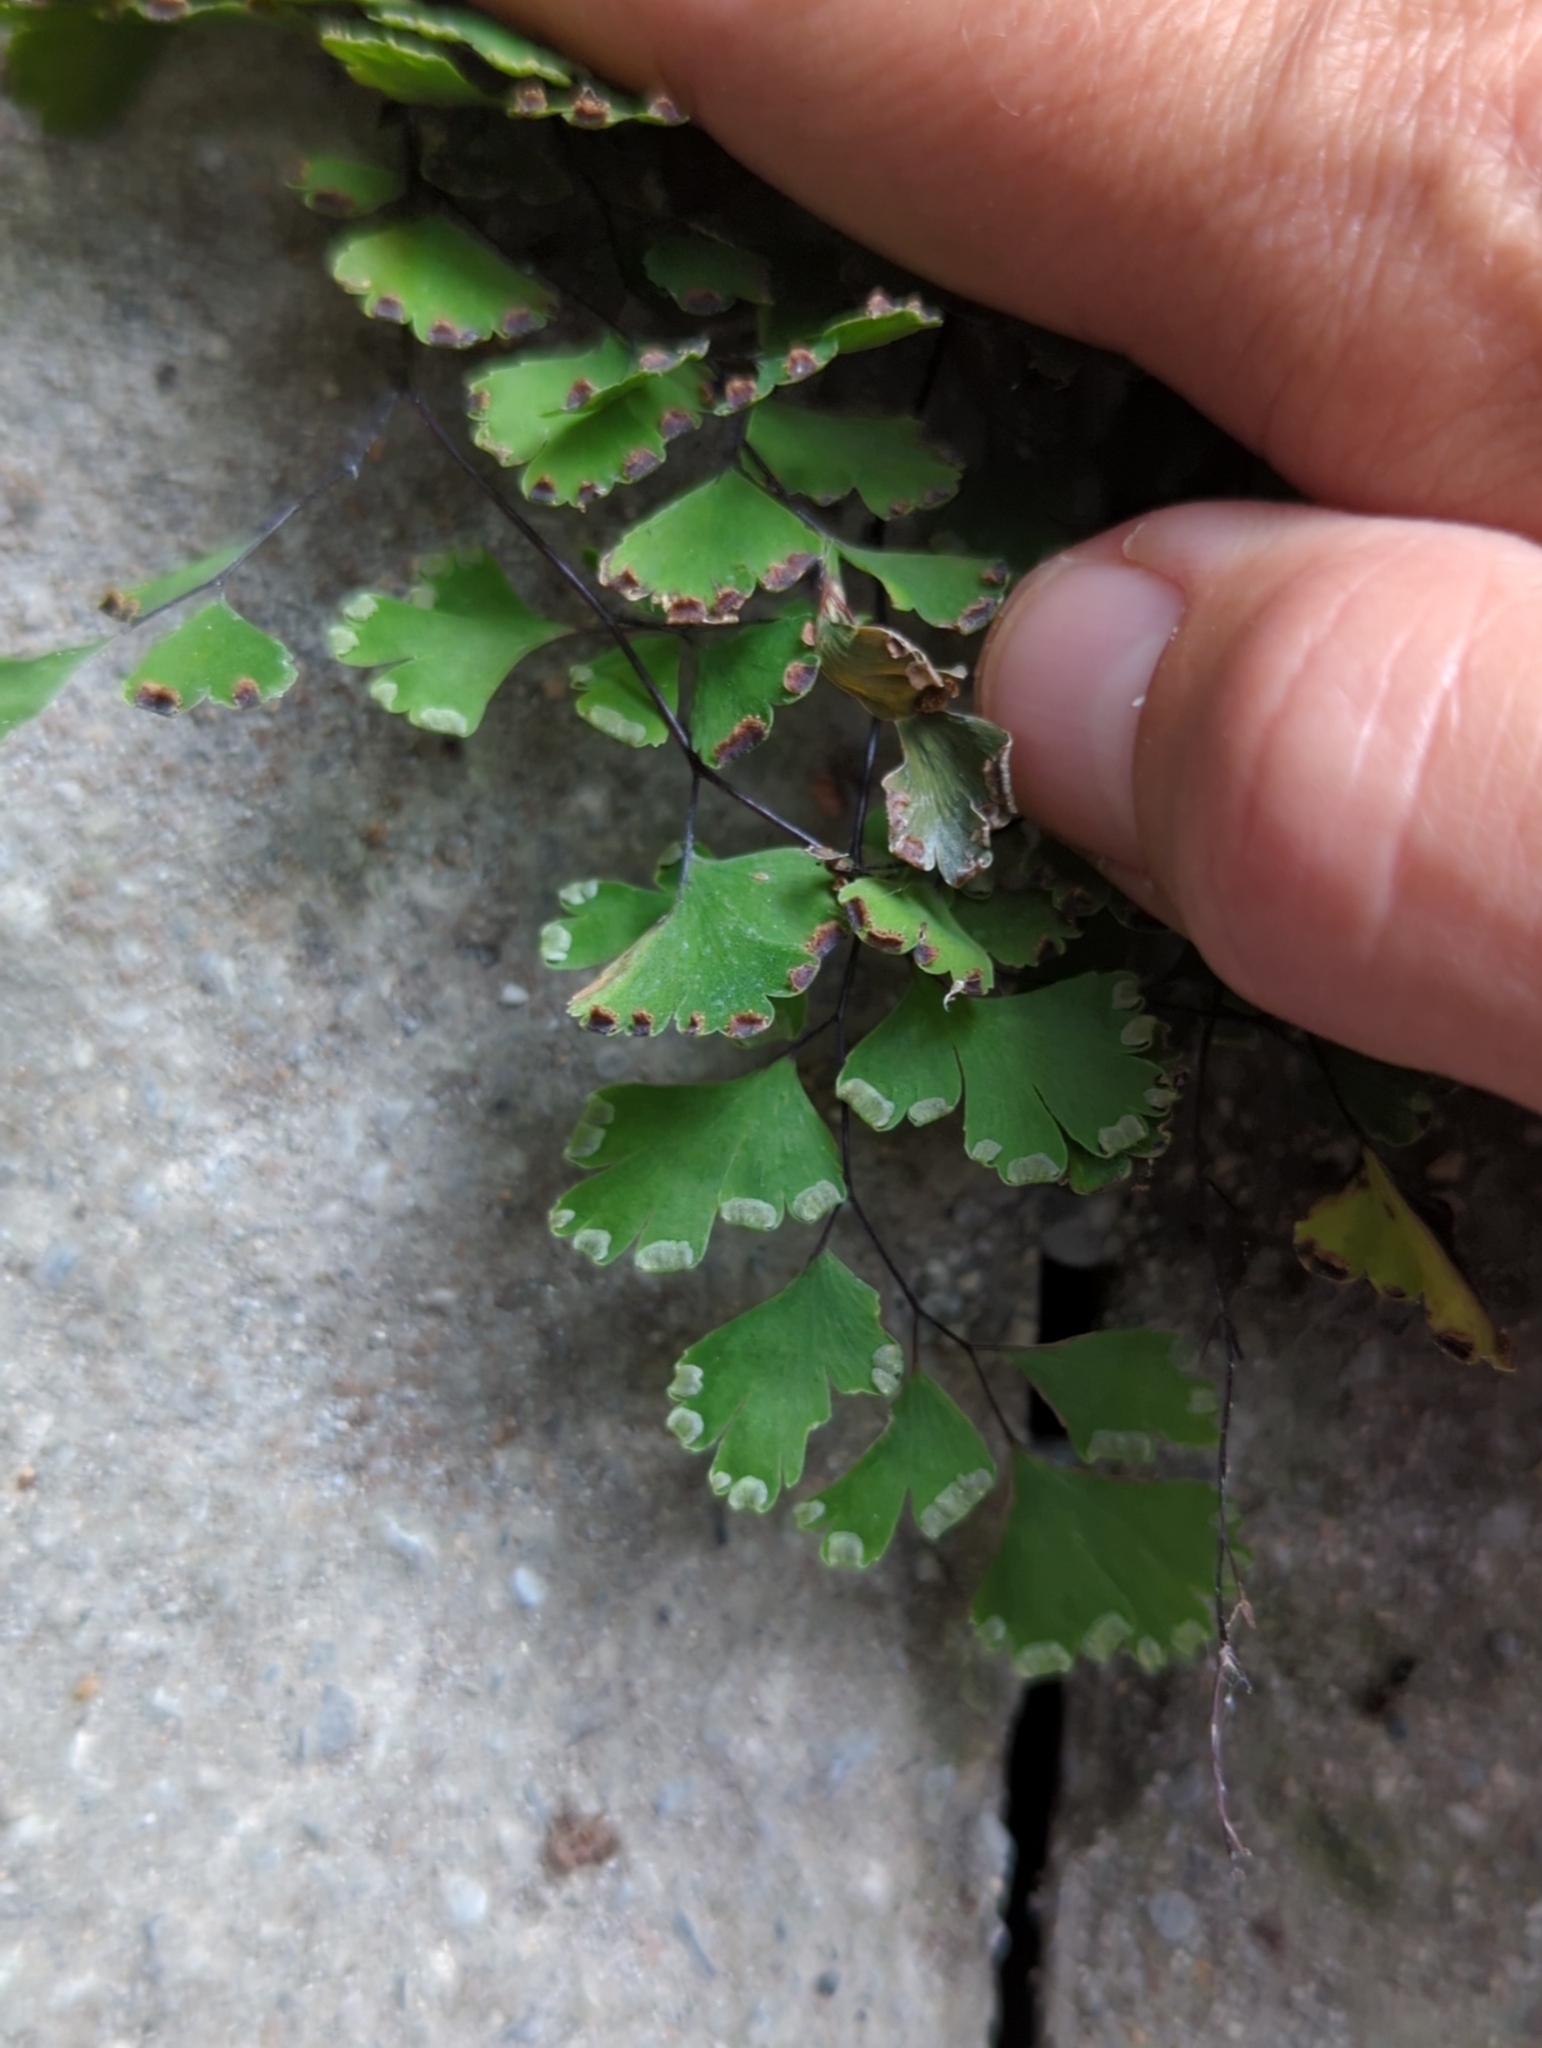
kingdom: Plantae
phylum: Tracheophyta
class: Polypodiopsida
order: Polypodiales
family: Pteridaceae
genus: Adiantum
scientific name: Adiantum capillus-veneris
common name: Maidenhair fern
